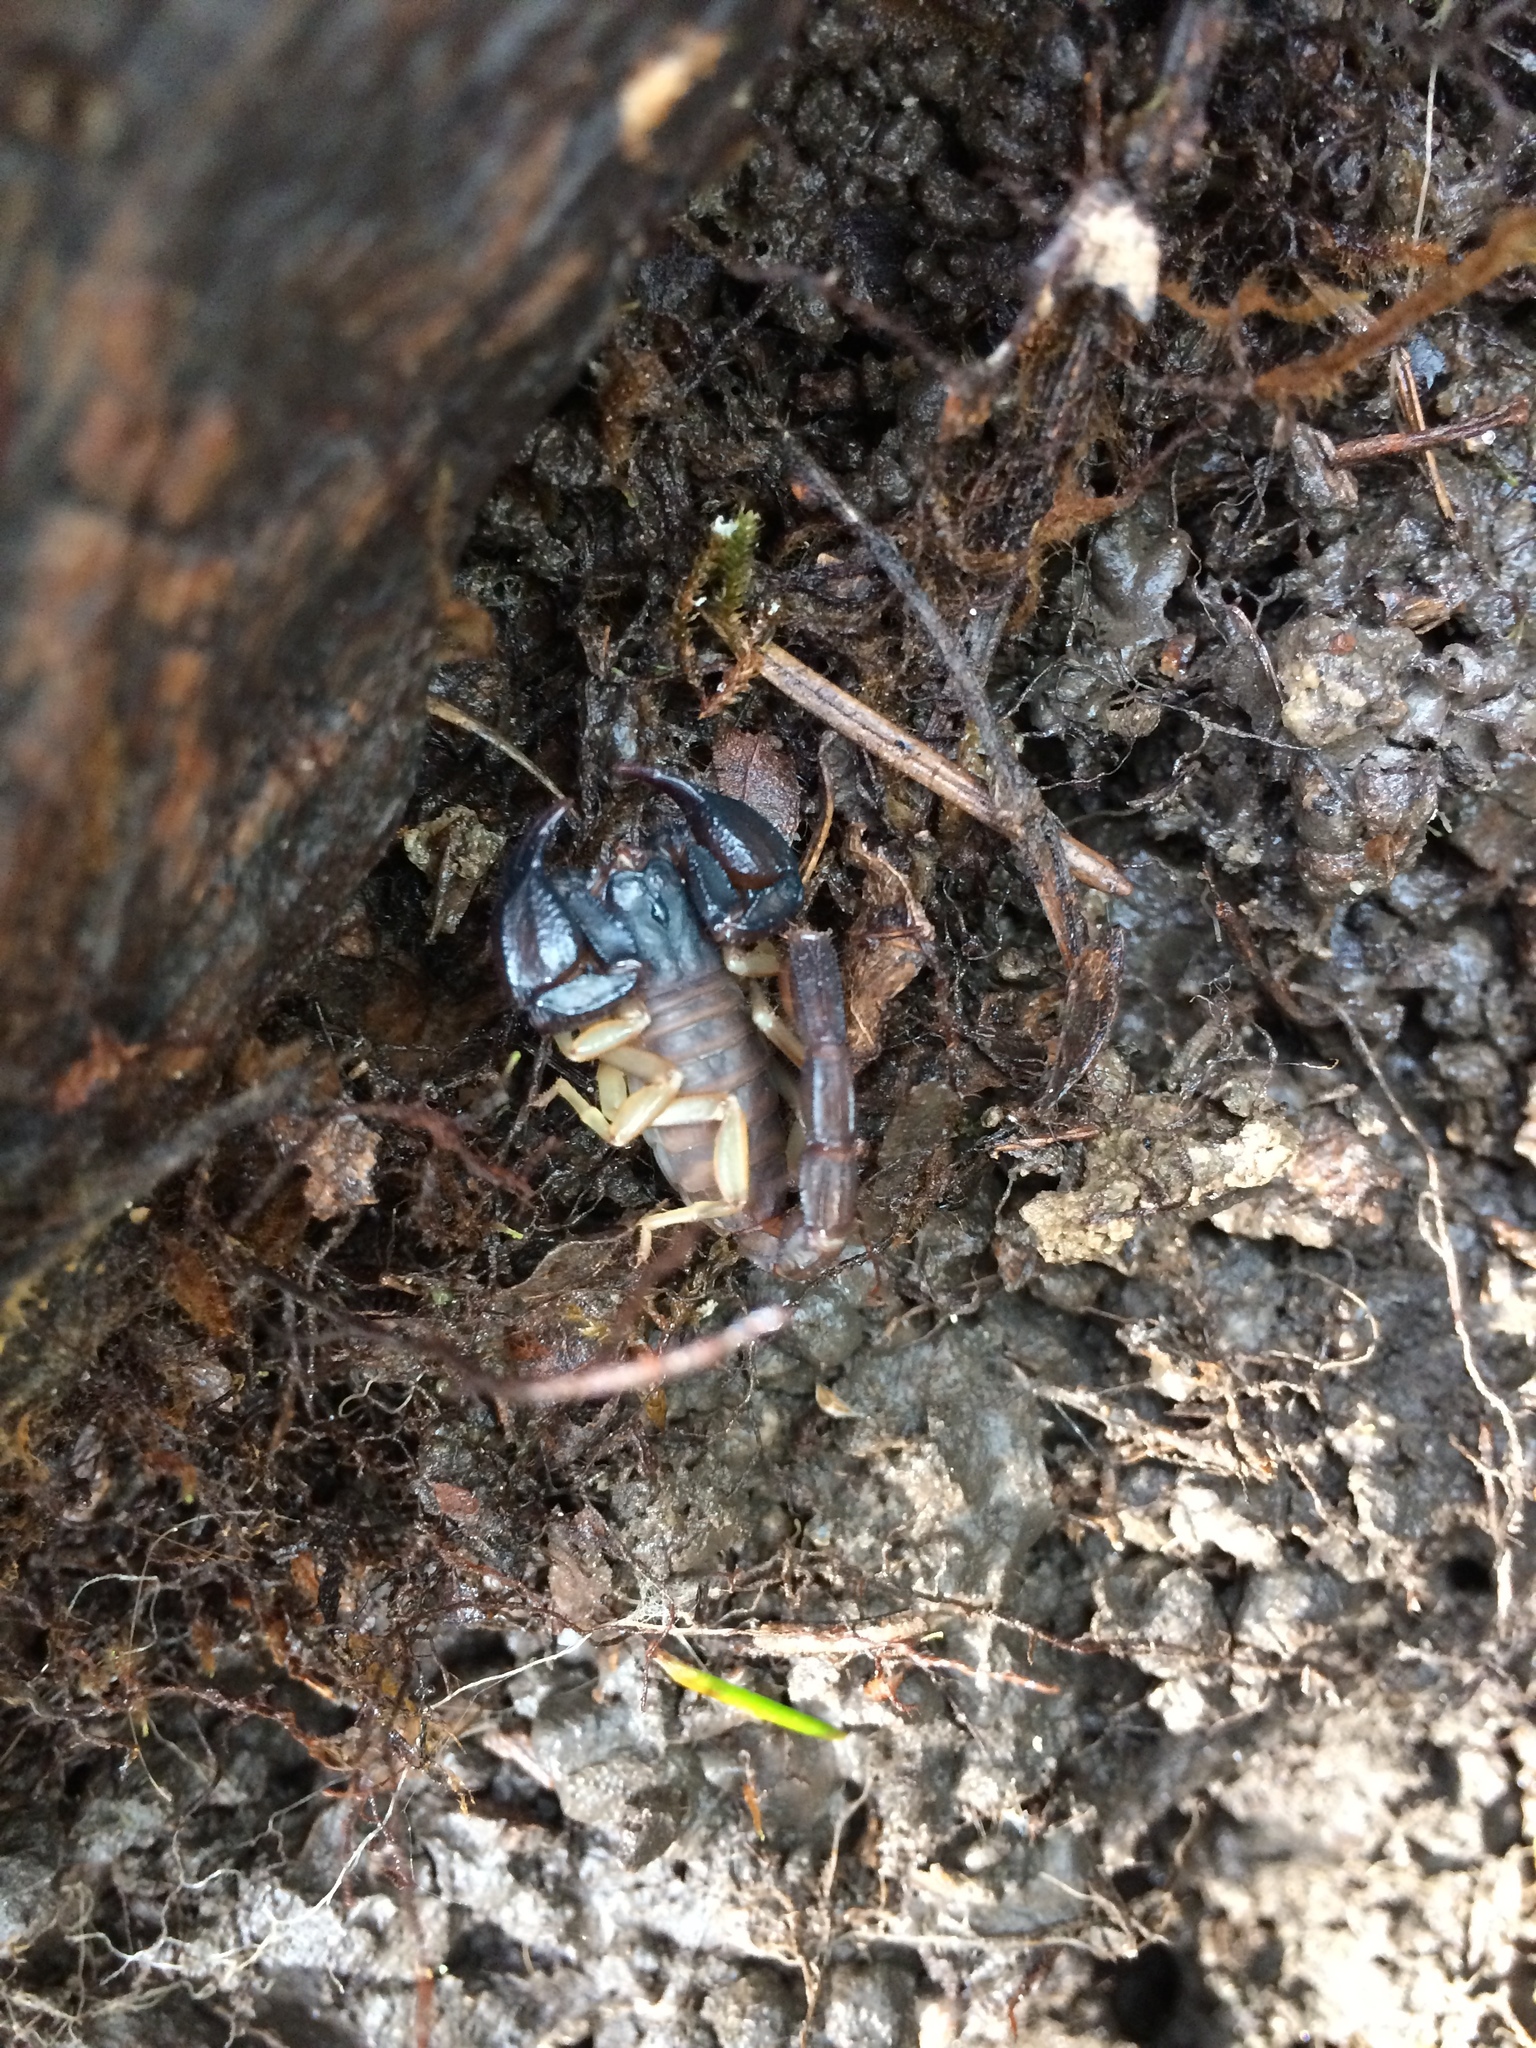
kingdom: Animalia
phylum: Arthropoda
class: Arachnida
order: Scorpiones
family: Chactidae
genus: Uroctonus
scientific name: Uroctonus mordax
